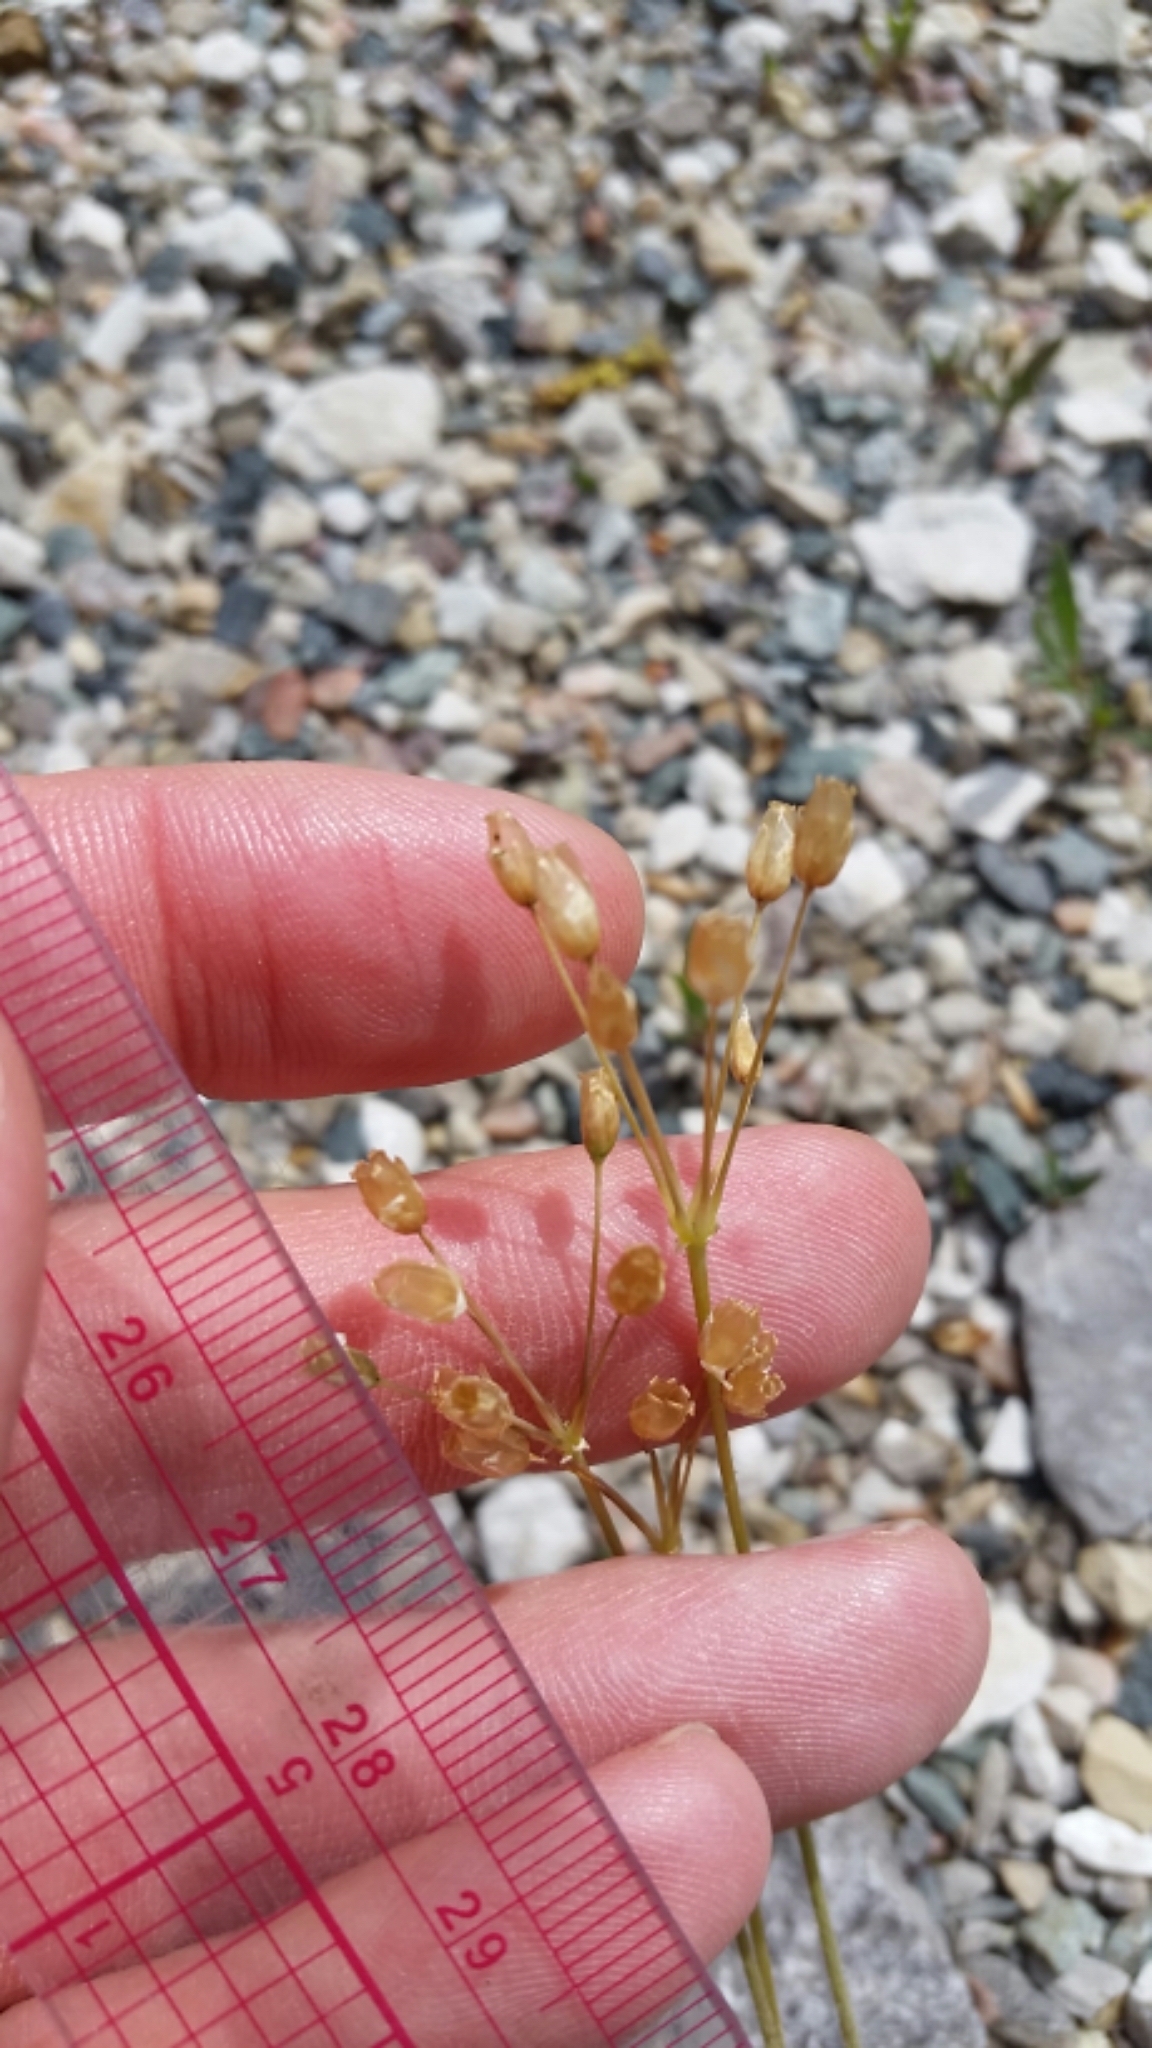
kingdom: Plantae
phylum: Tracheophyta
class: Magnoliopsida
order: Caryophyllales
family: Caryophyllaceae
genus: Holosteum
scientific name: Holosteum umbellatum
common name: Jagged chickweed
